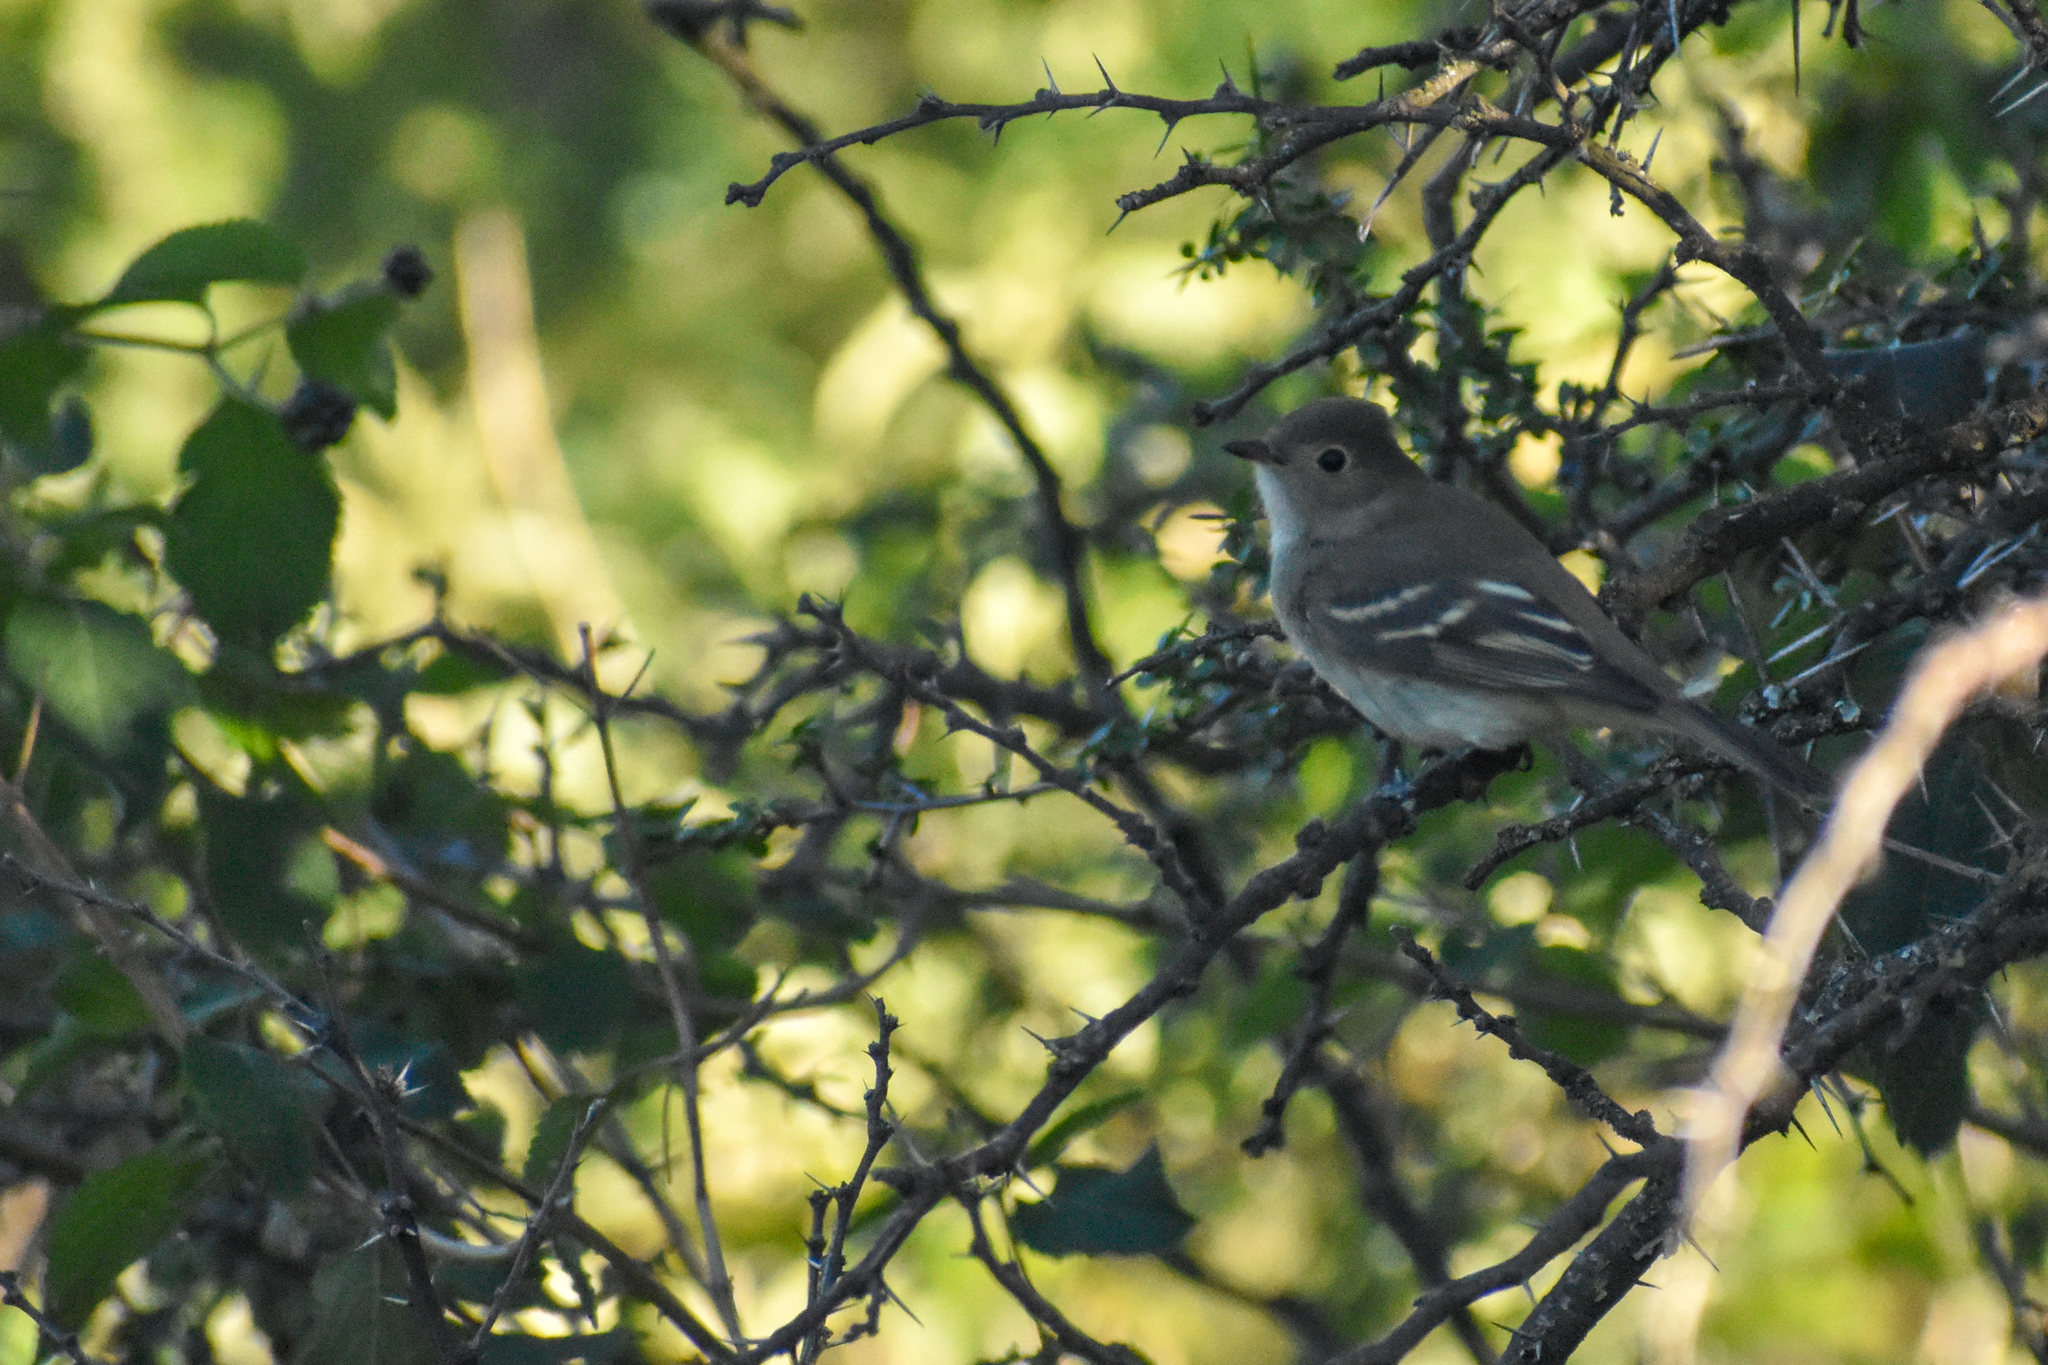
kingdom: Animalia
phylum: Chordata
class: Aves
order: Passeriformes
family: Tyrannidae
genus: Elaenia
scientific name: Elaenia parvirostris
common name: Small-billed elaenia
